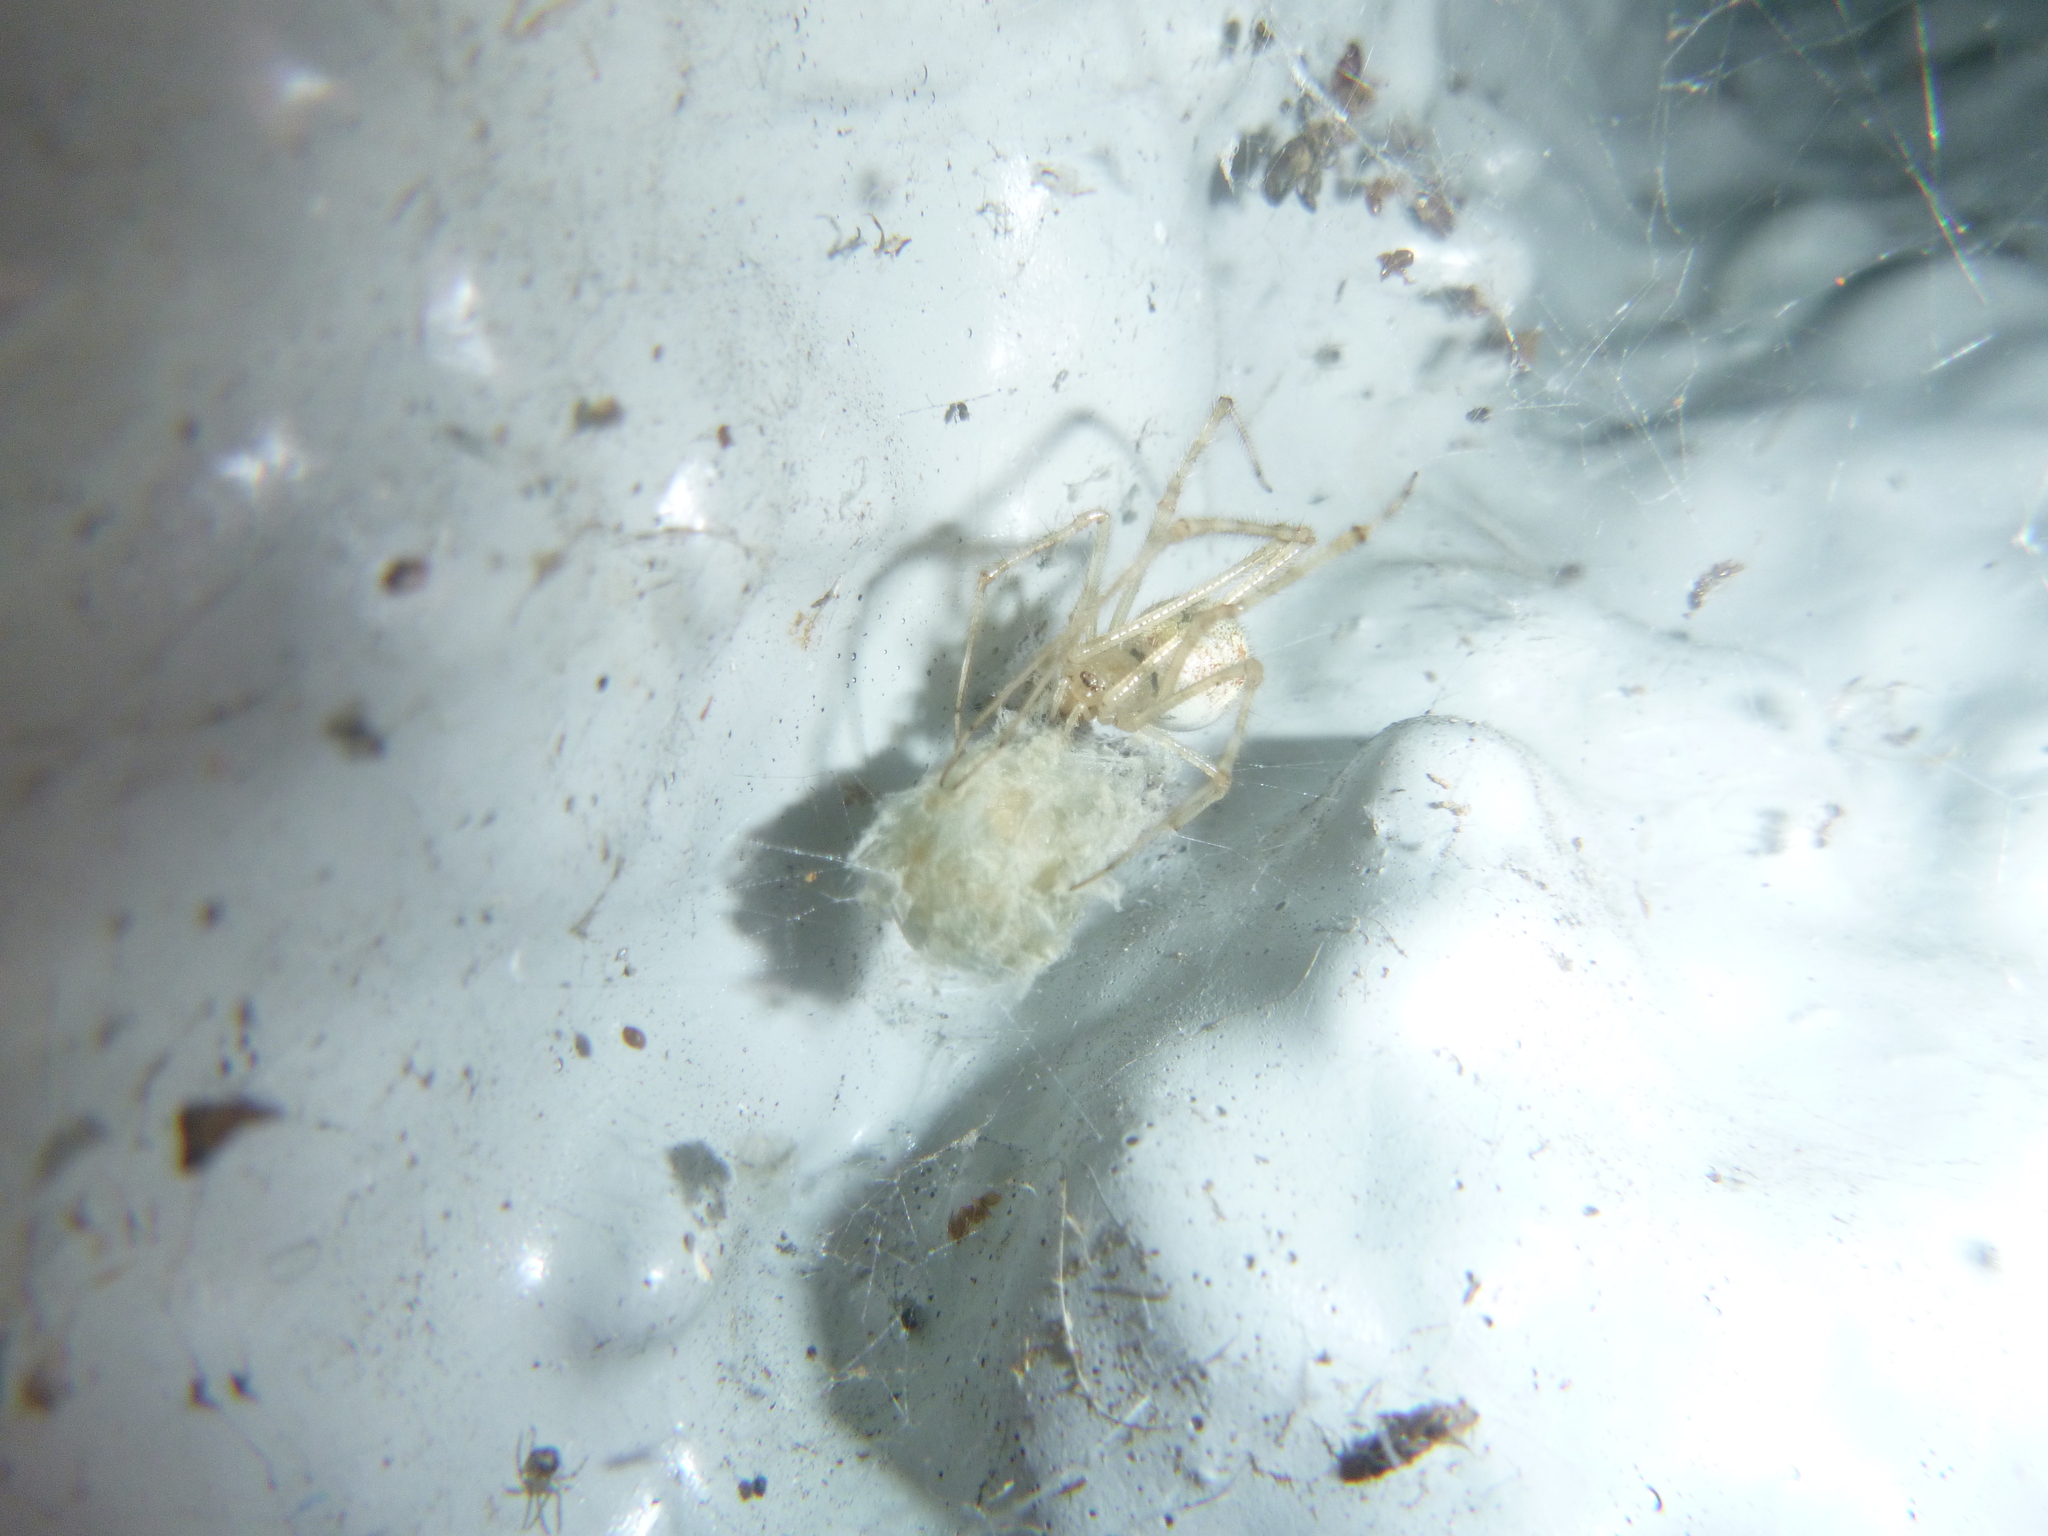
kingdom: Animalia
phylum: Arthropoda
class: Arachnida
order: Araneae
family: Theridiidae
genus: Cryptachaea
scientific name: Cryptachaea gigantipes
